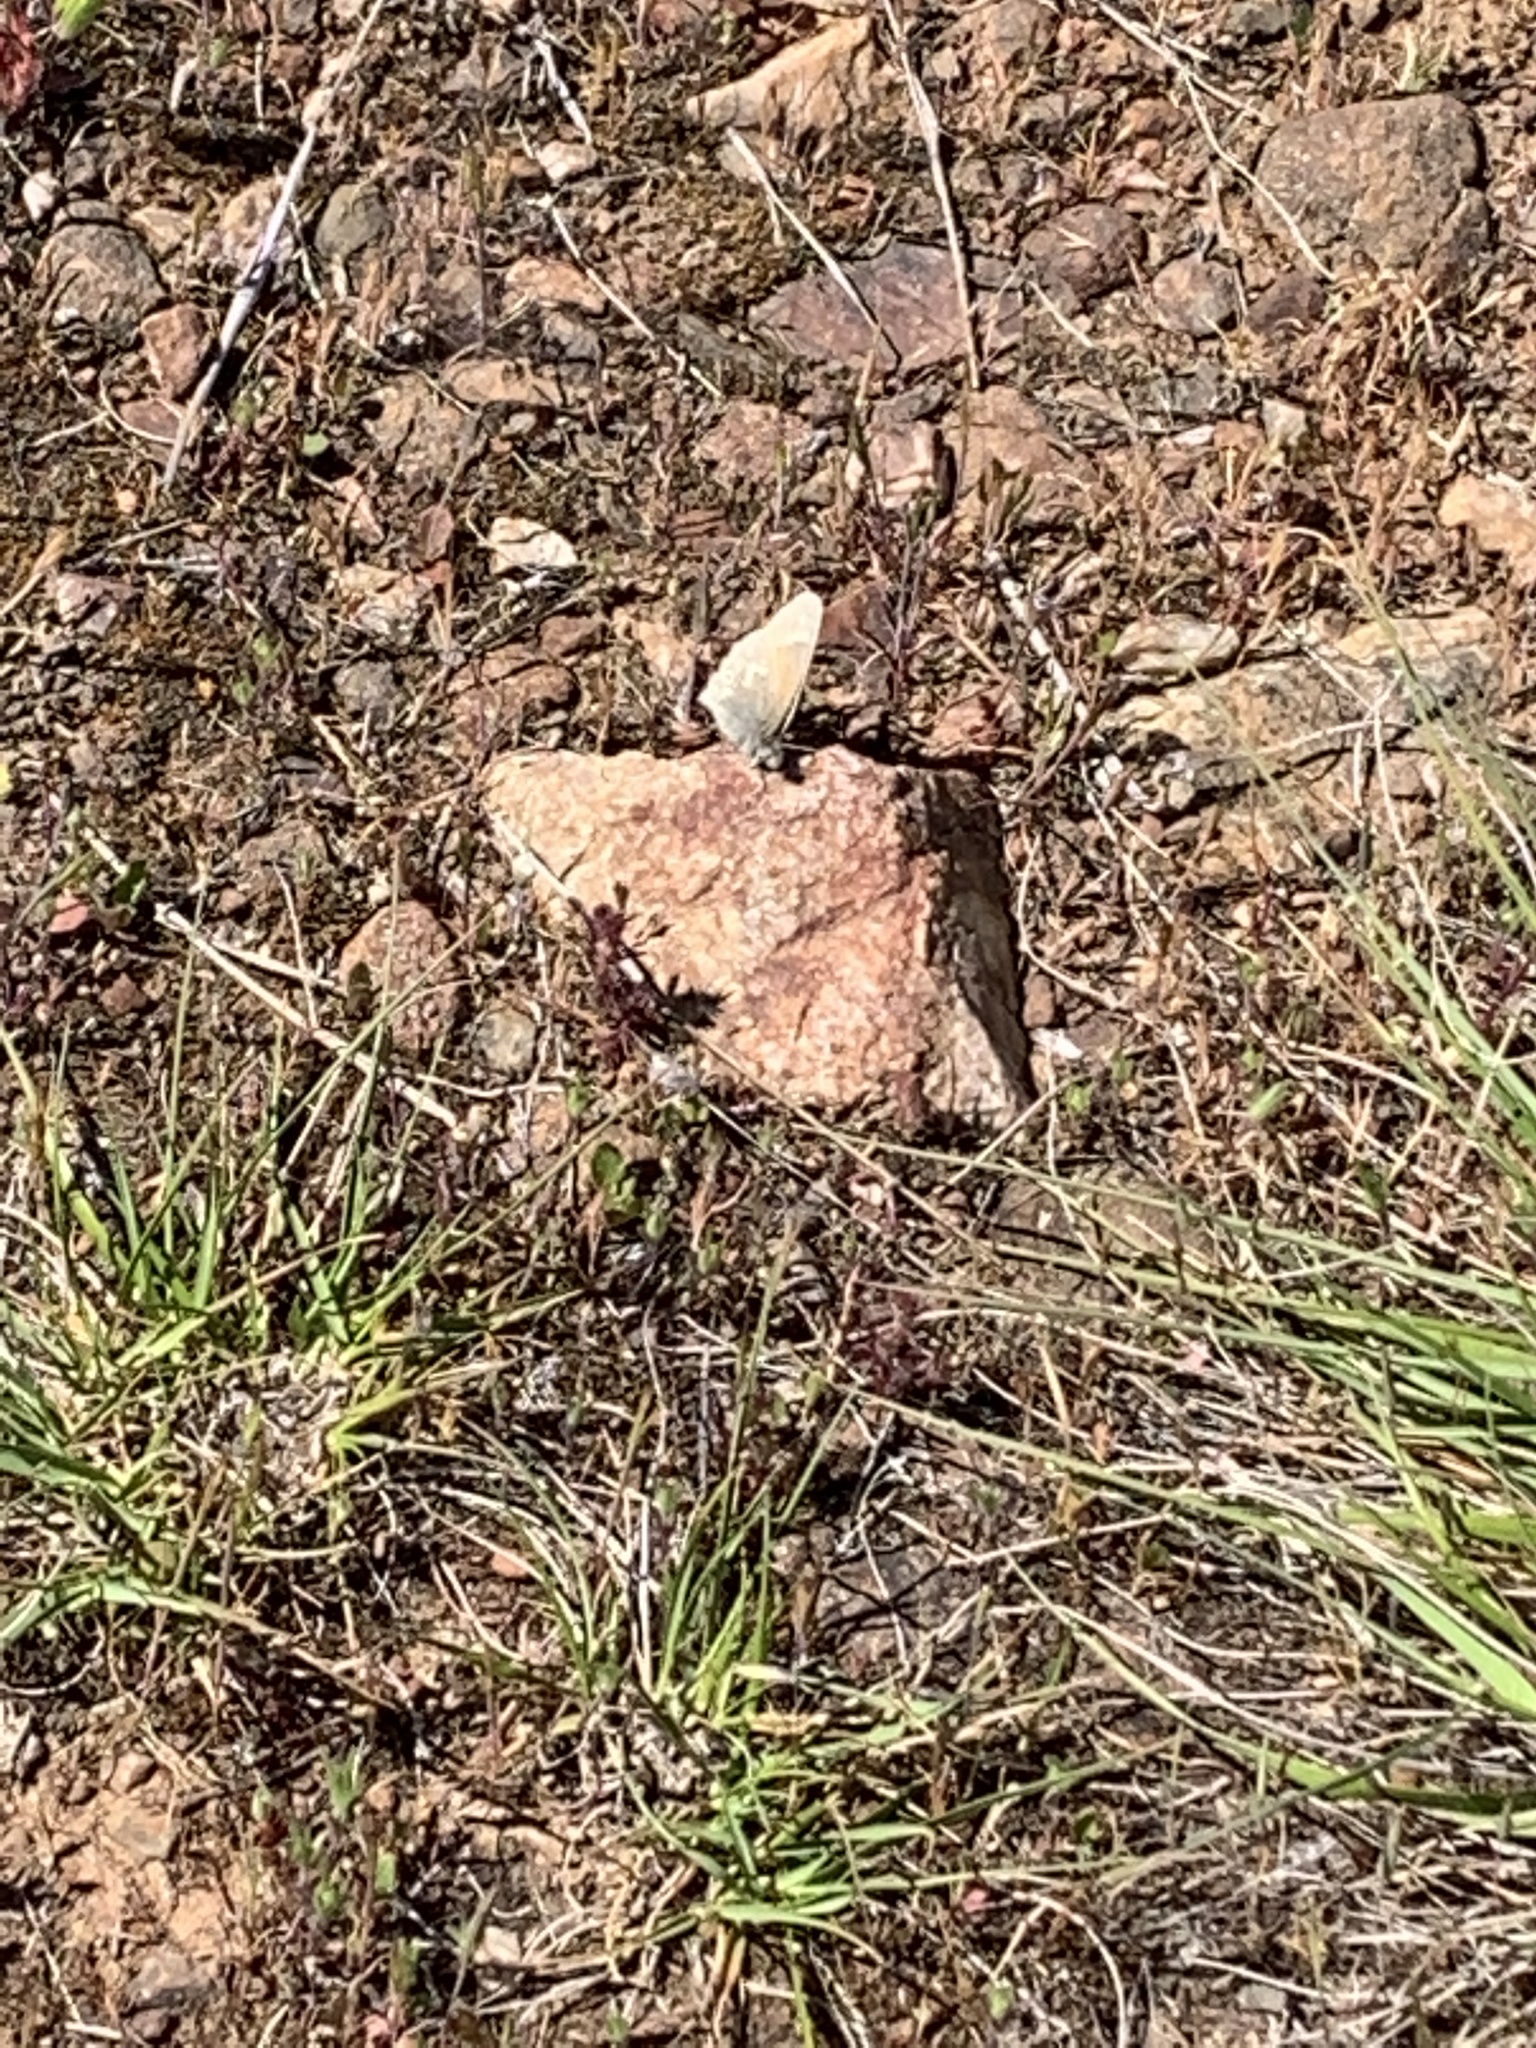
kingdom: Animalia
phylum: Arthropoda
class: Insecta
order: Lepidoptera
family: Nymphalidae
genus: Coenonympha
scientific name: Coenonympha california
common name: Common ringlet
